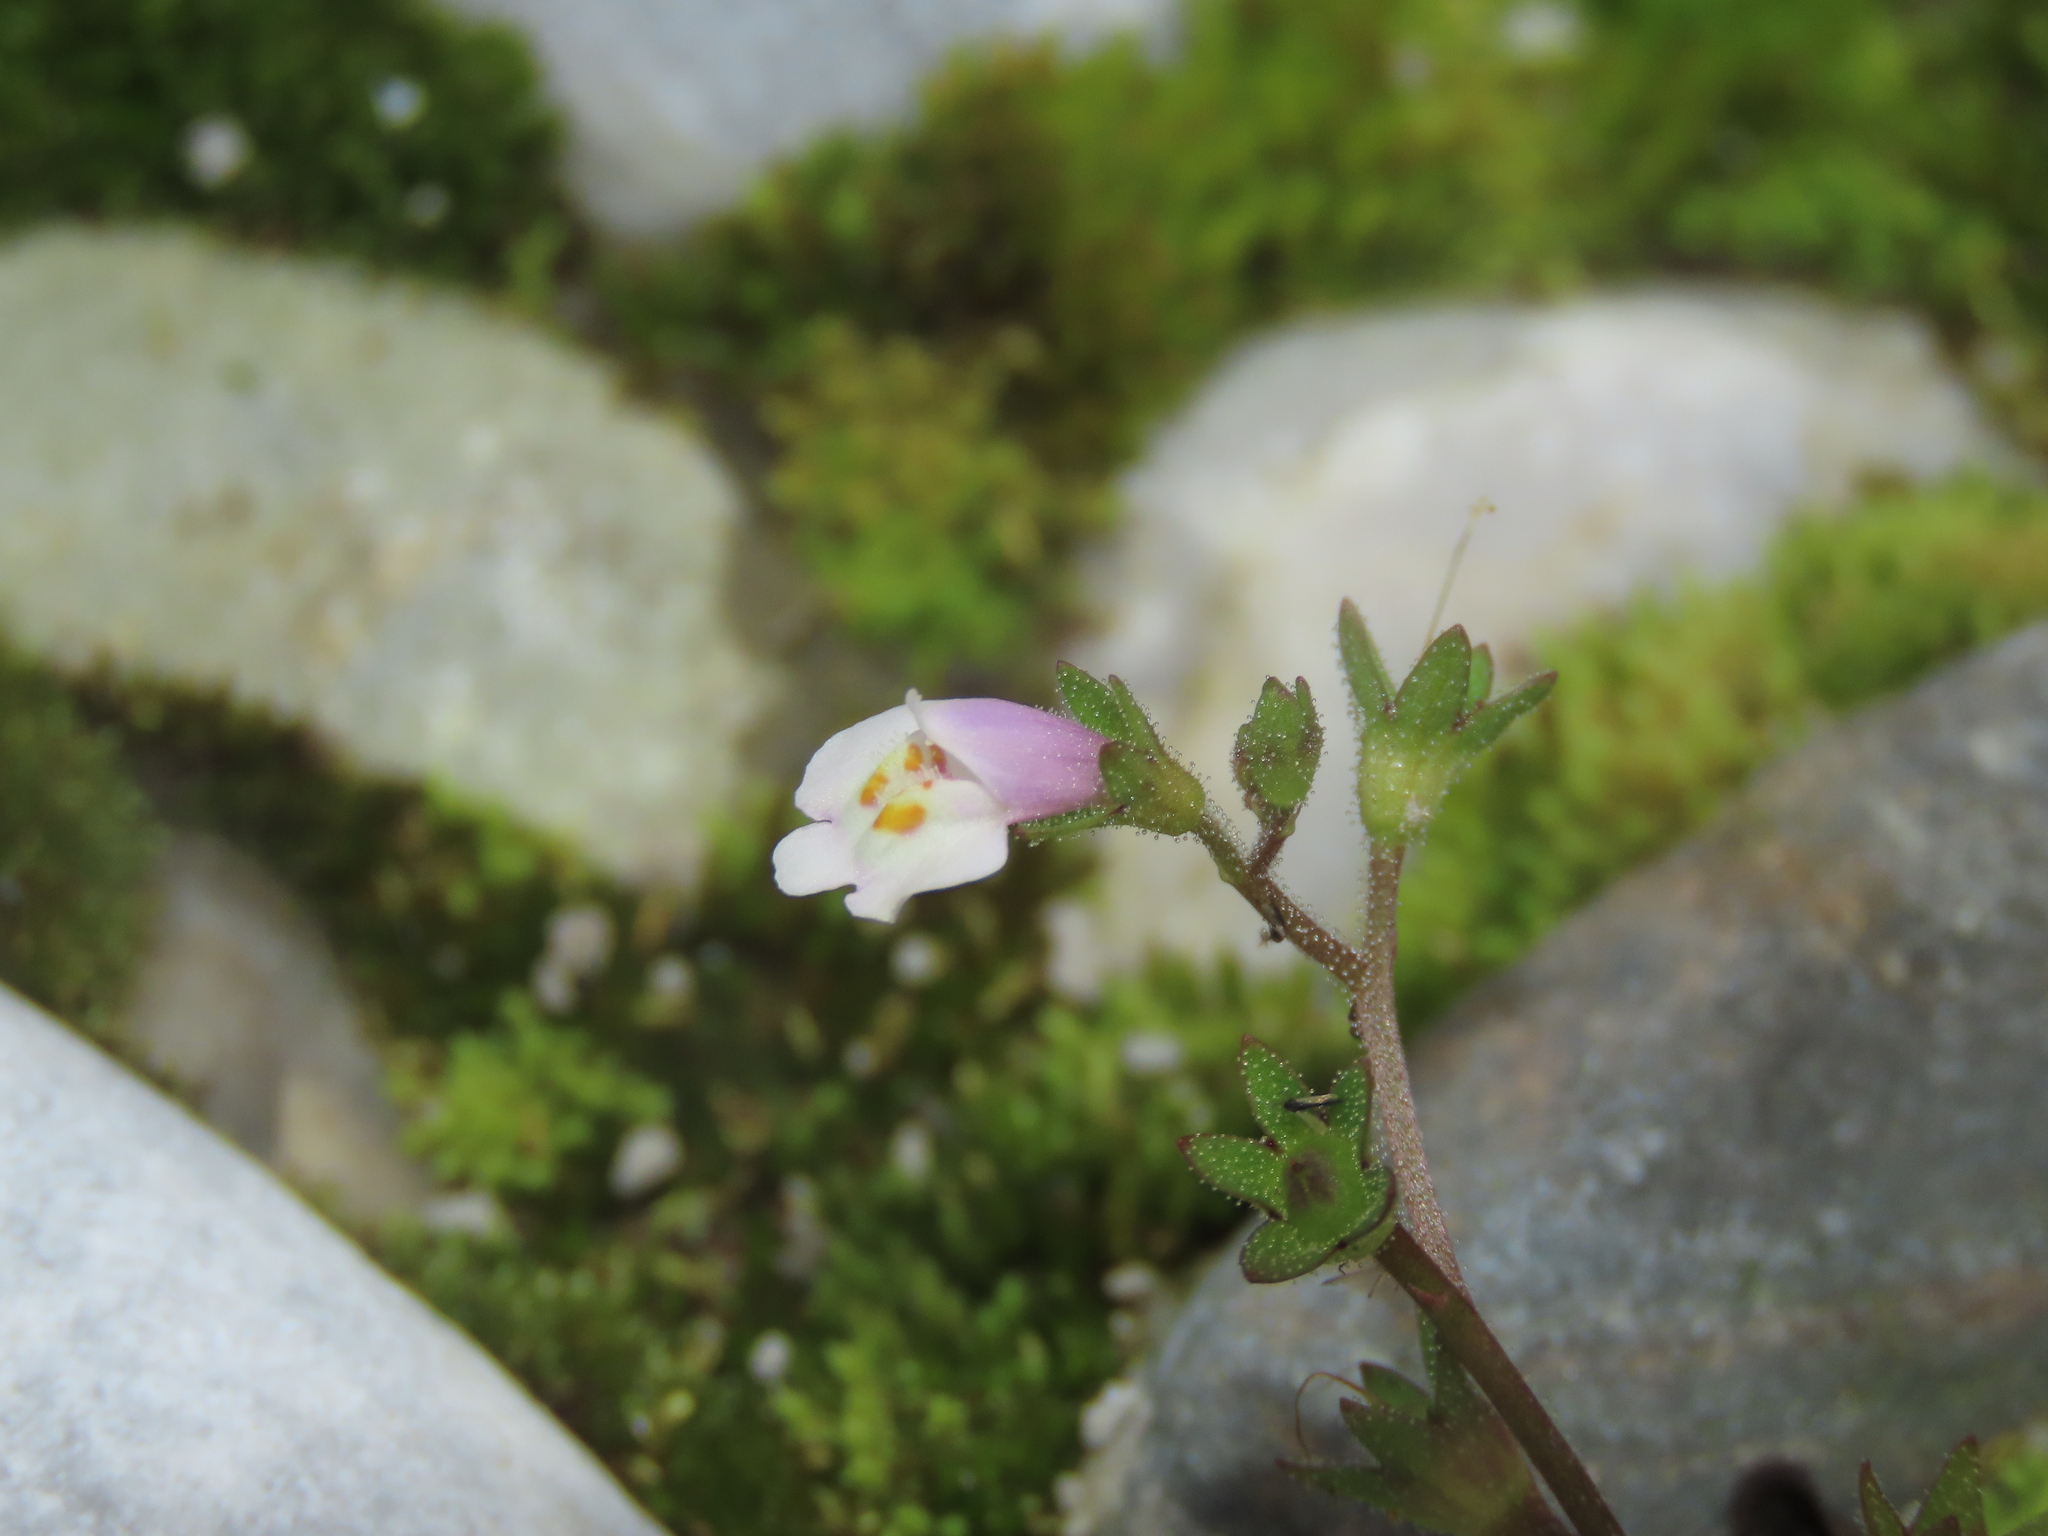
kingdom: Plantae
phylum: Tracheophyta
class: Magnoliopsida
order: Lamiales
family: Mazaceae
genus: Mazus
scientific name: Mazus pumilus
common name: Japanese mazus
